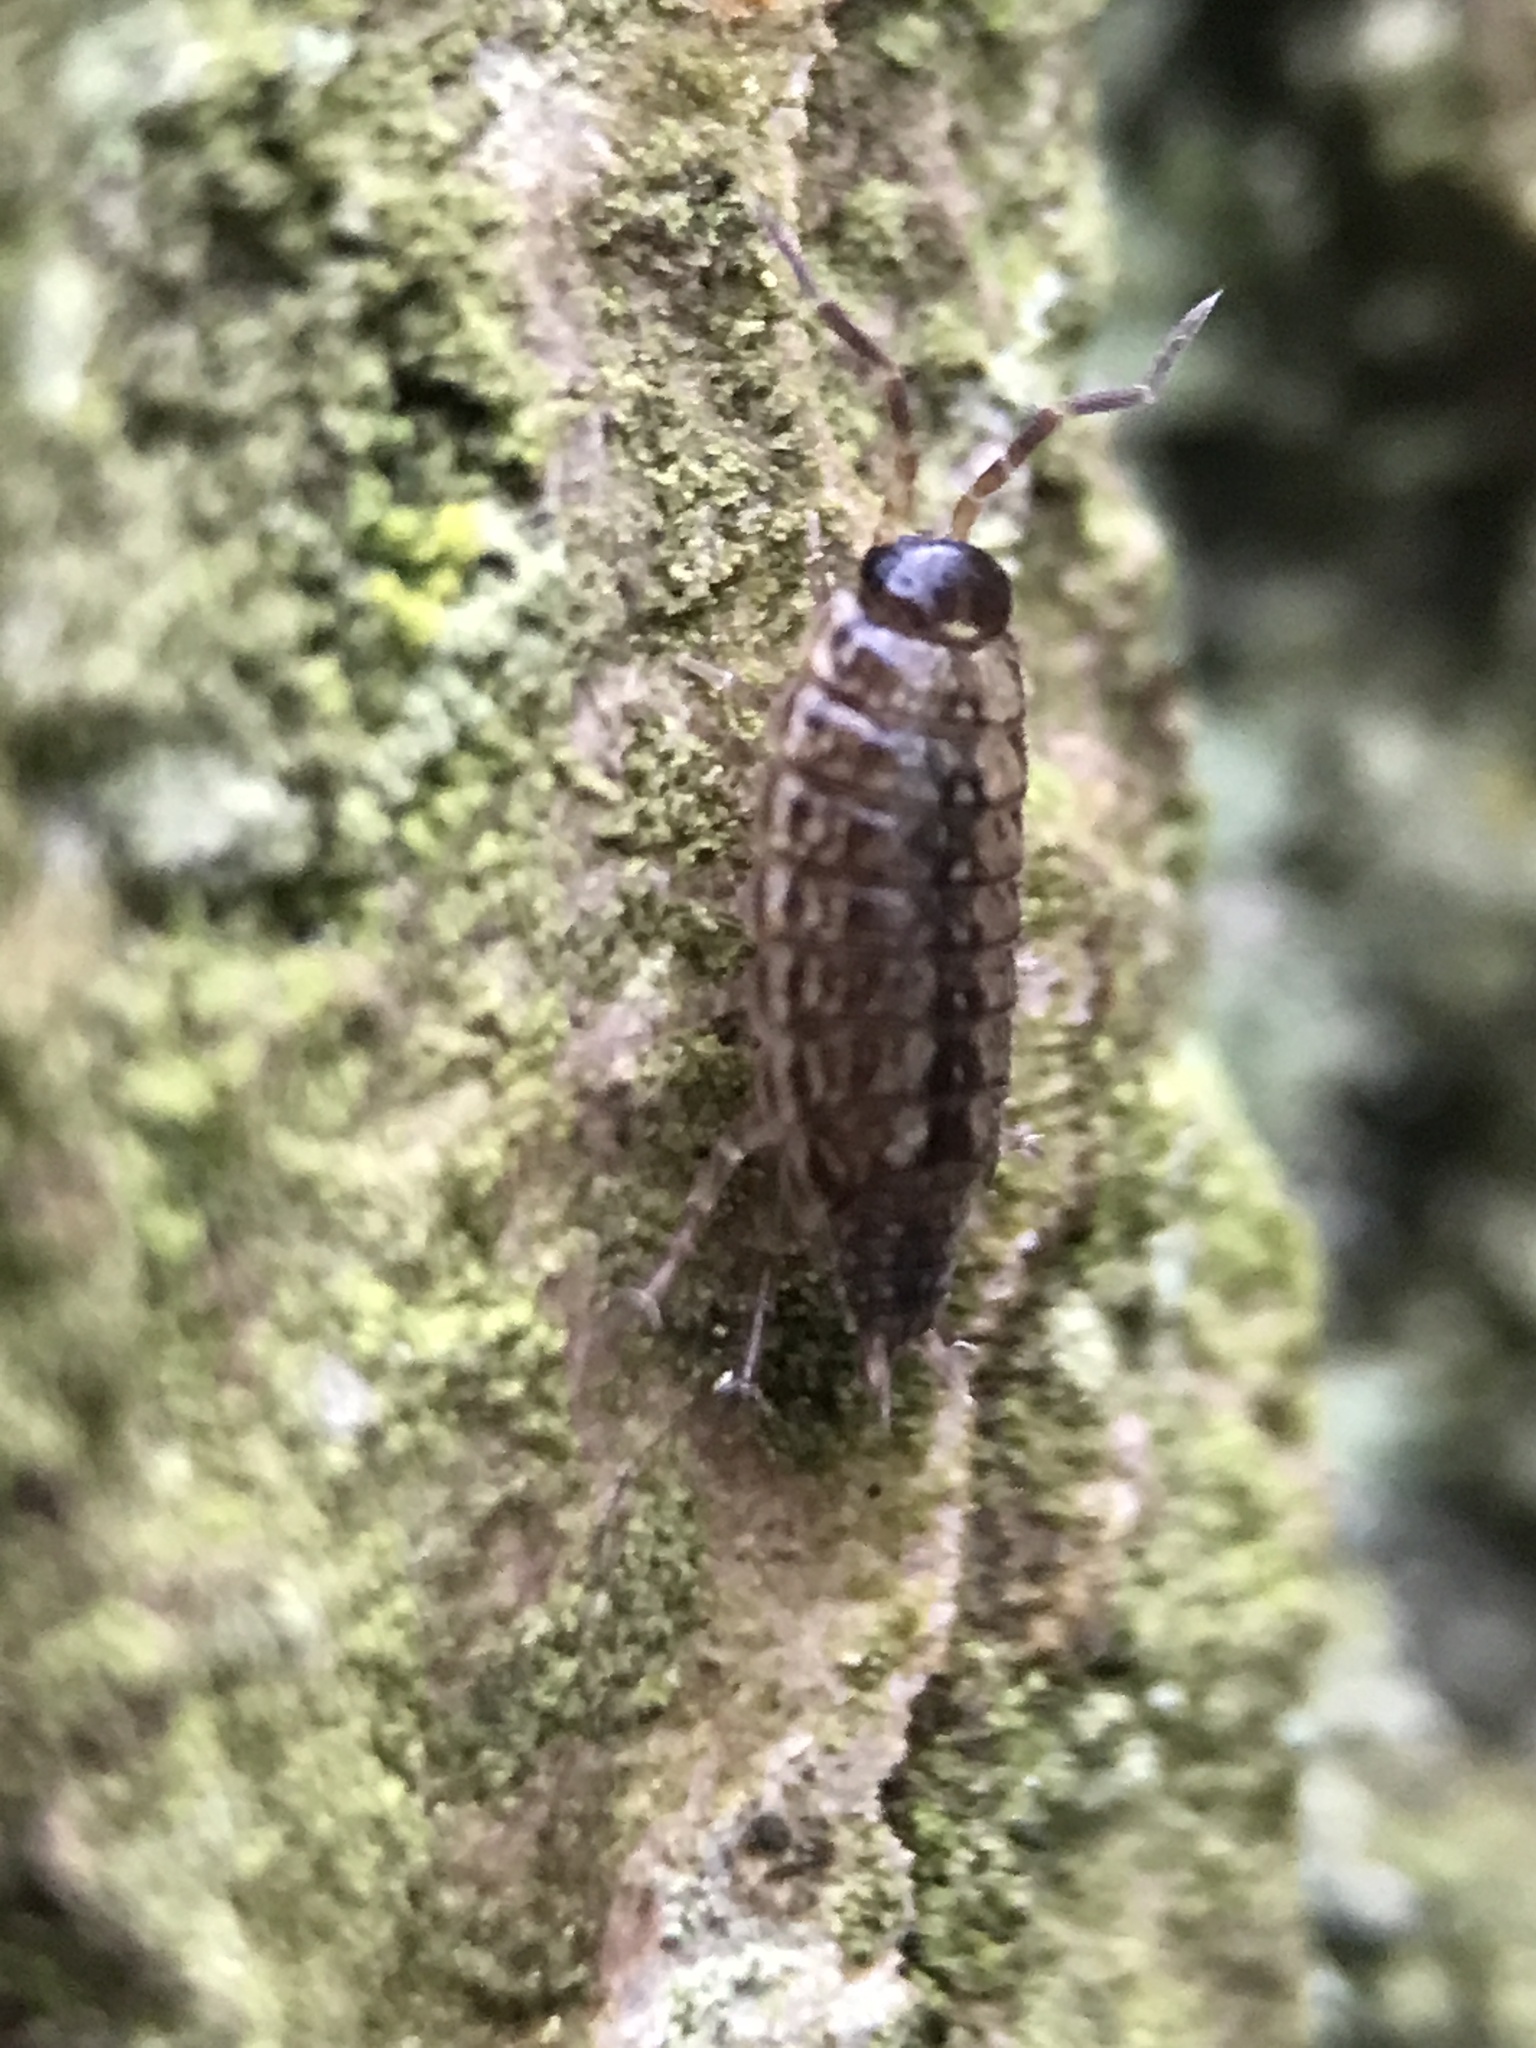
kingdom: Animalia
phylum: Arthropoda
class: Malacostraca
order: Isopoda
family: Philosciidae
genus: Philoscia
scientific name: Philoscia muscorum
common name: Common striped woodlouse
